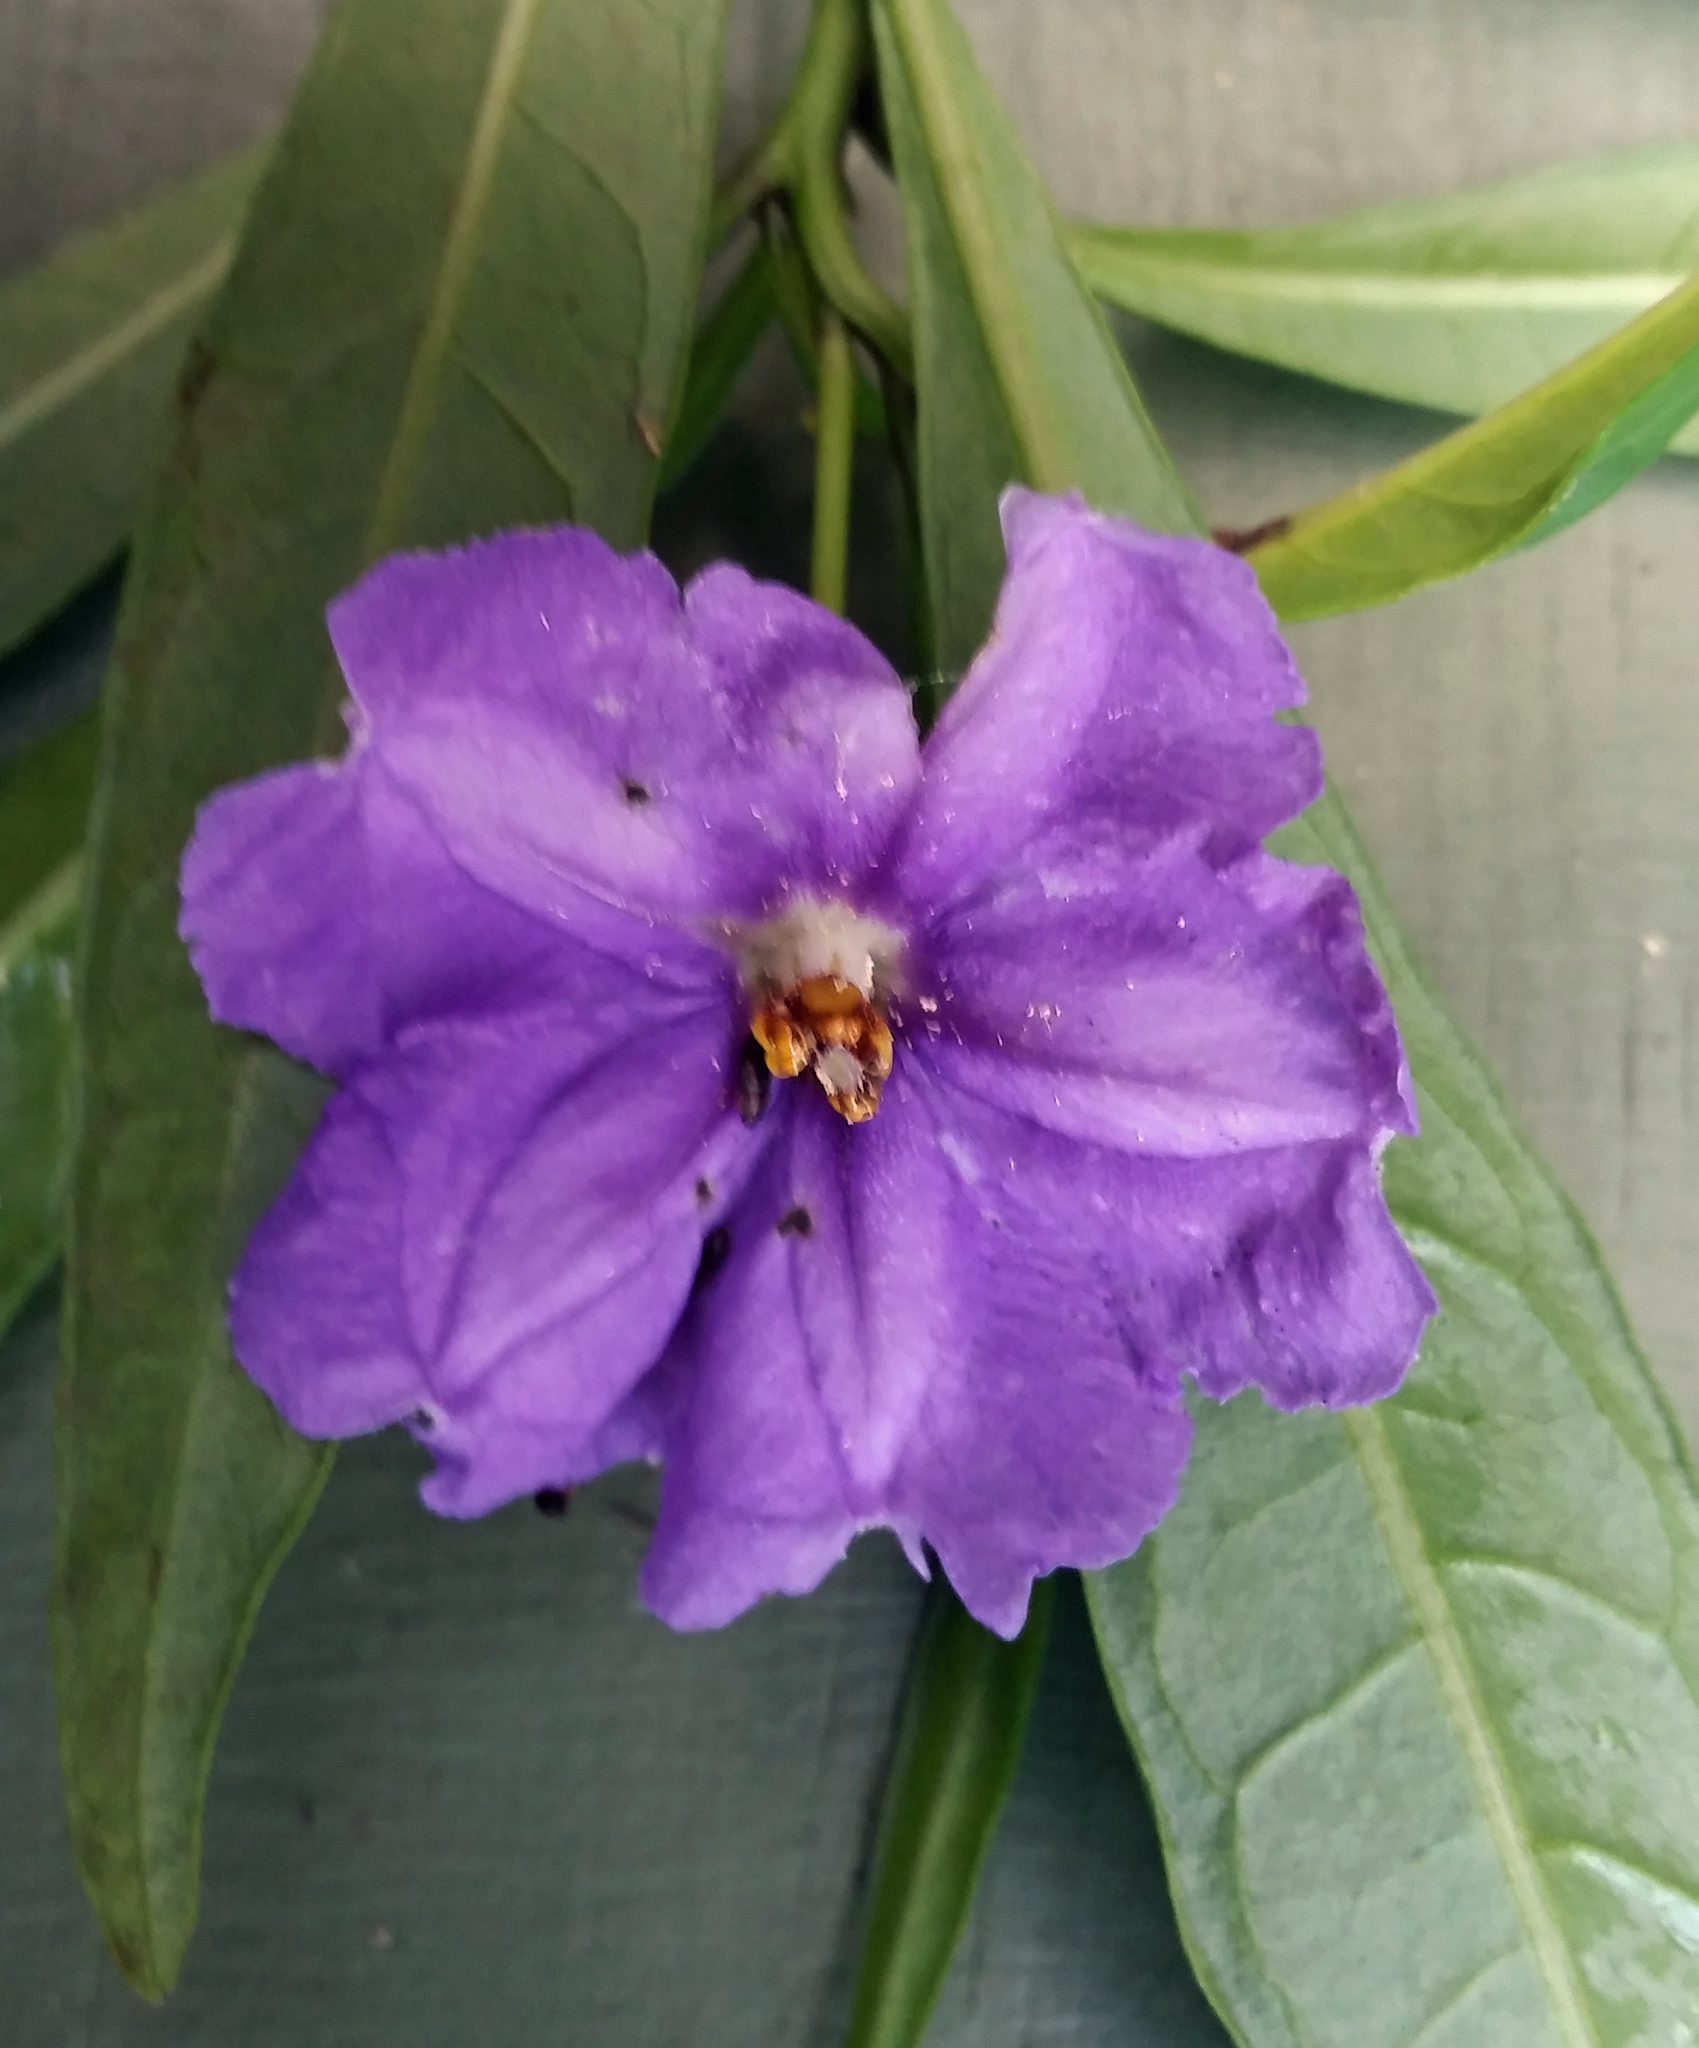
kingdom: Plantae
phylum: Tracheophyta
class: Magnoliopsida
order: Solanales
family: Solanaceae
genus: Solanum
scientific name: Solanum laciniatum
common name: Kangaroo-apple
